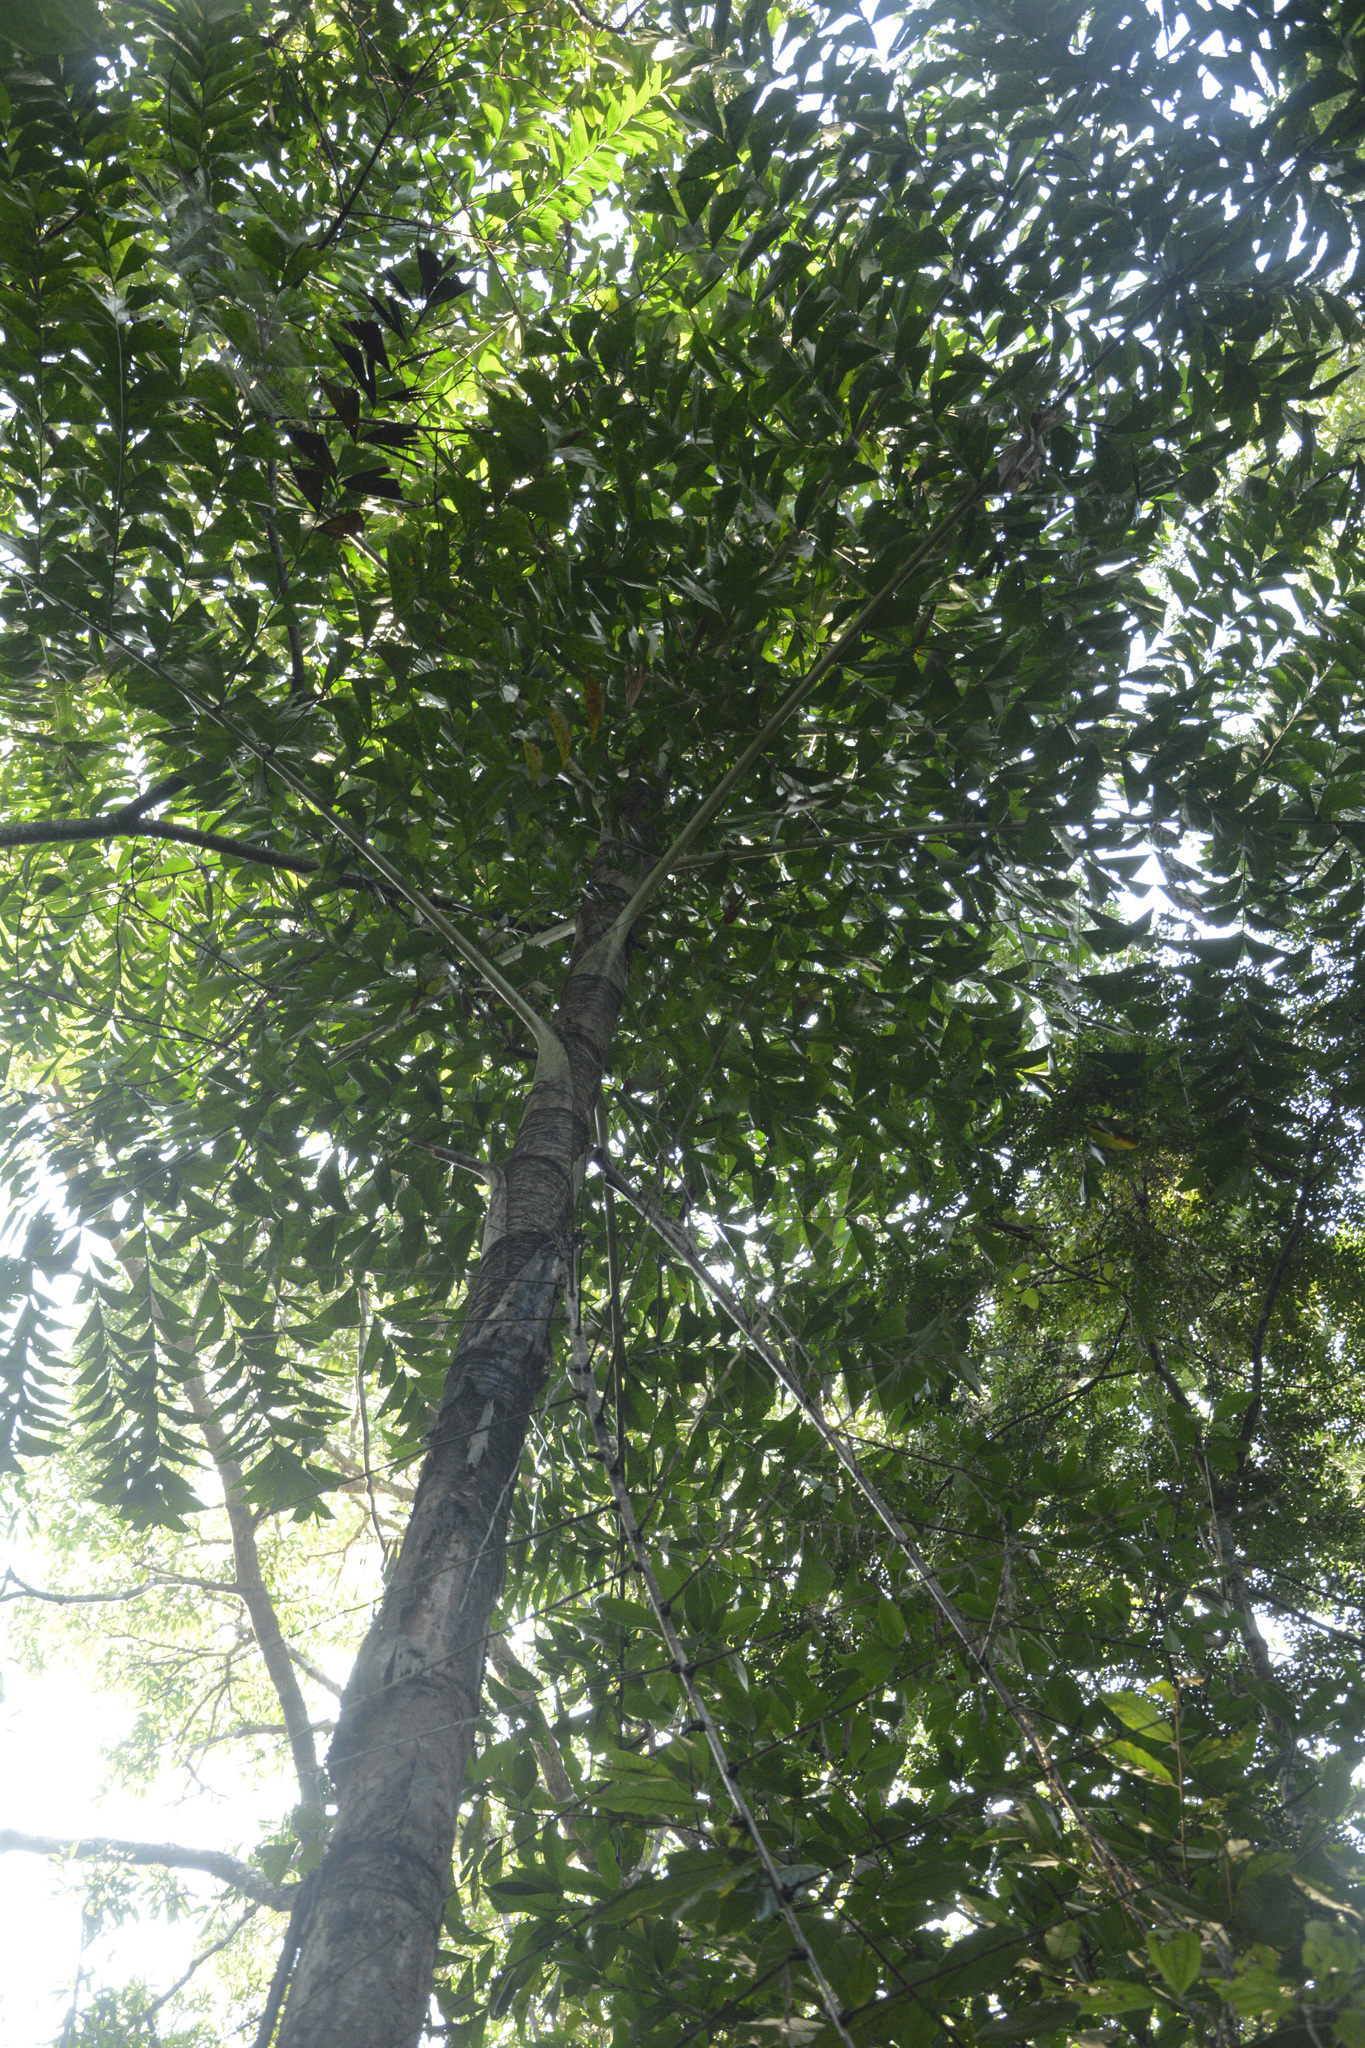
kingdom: Plantae
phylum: Tracheophyta
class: Liliopsida
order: Arecales
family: Arecaceae
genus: Caryota
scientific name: Caryota urens
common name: Jaggery palm
